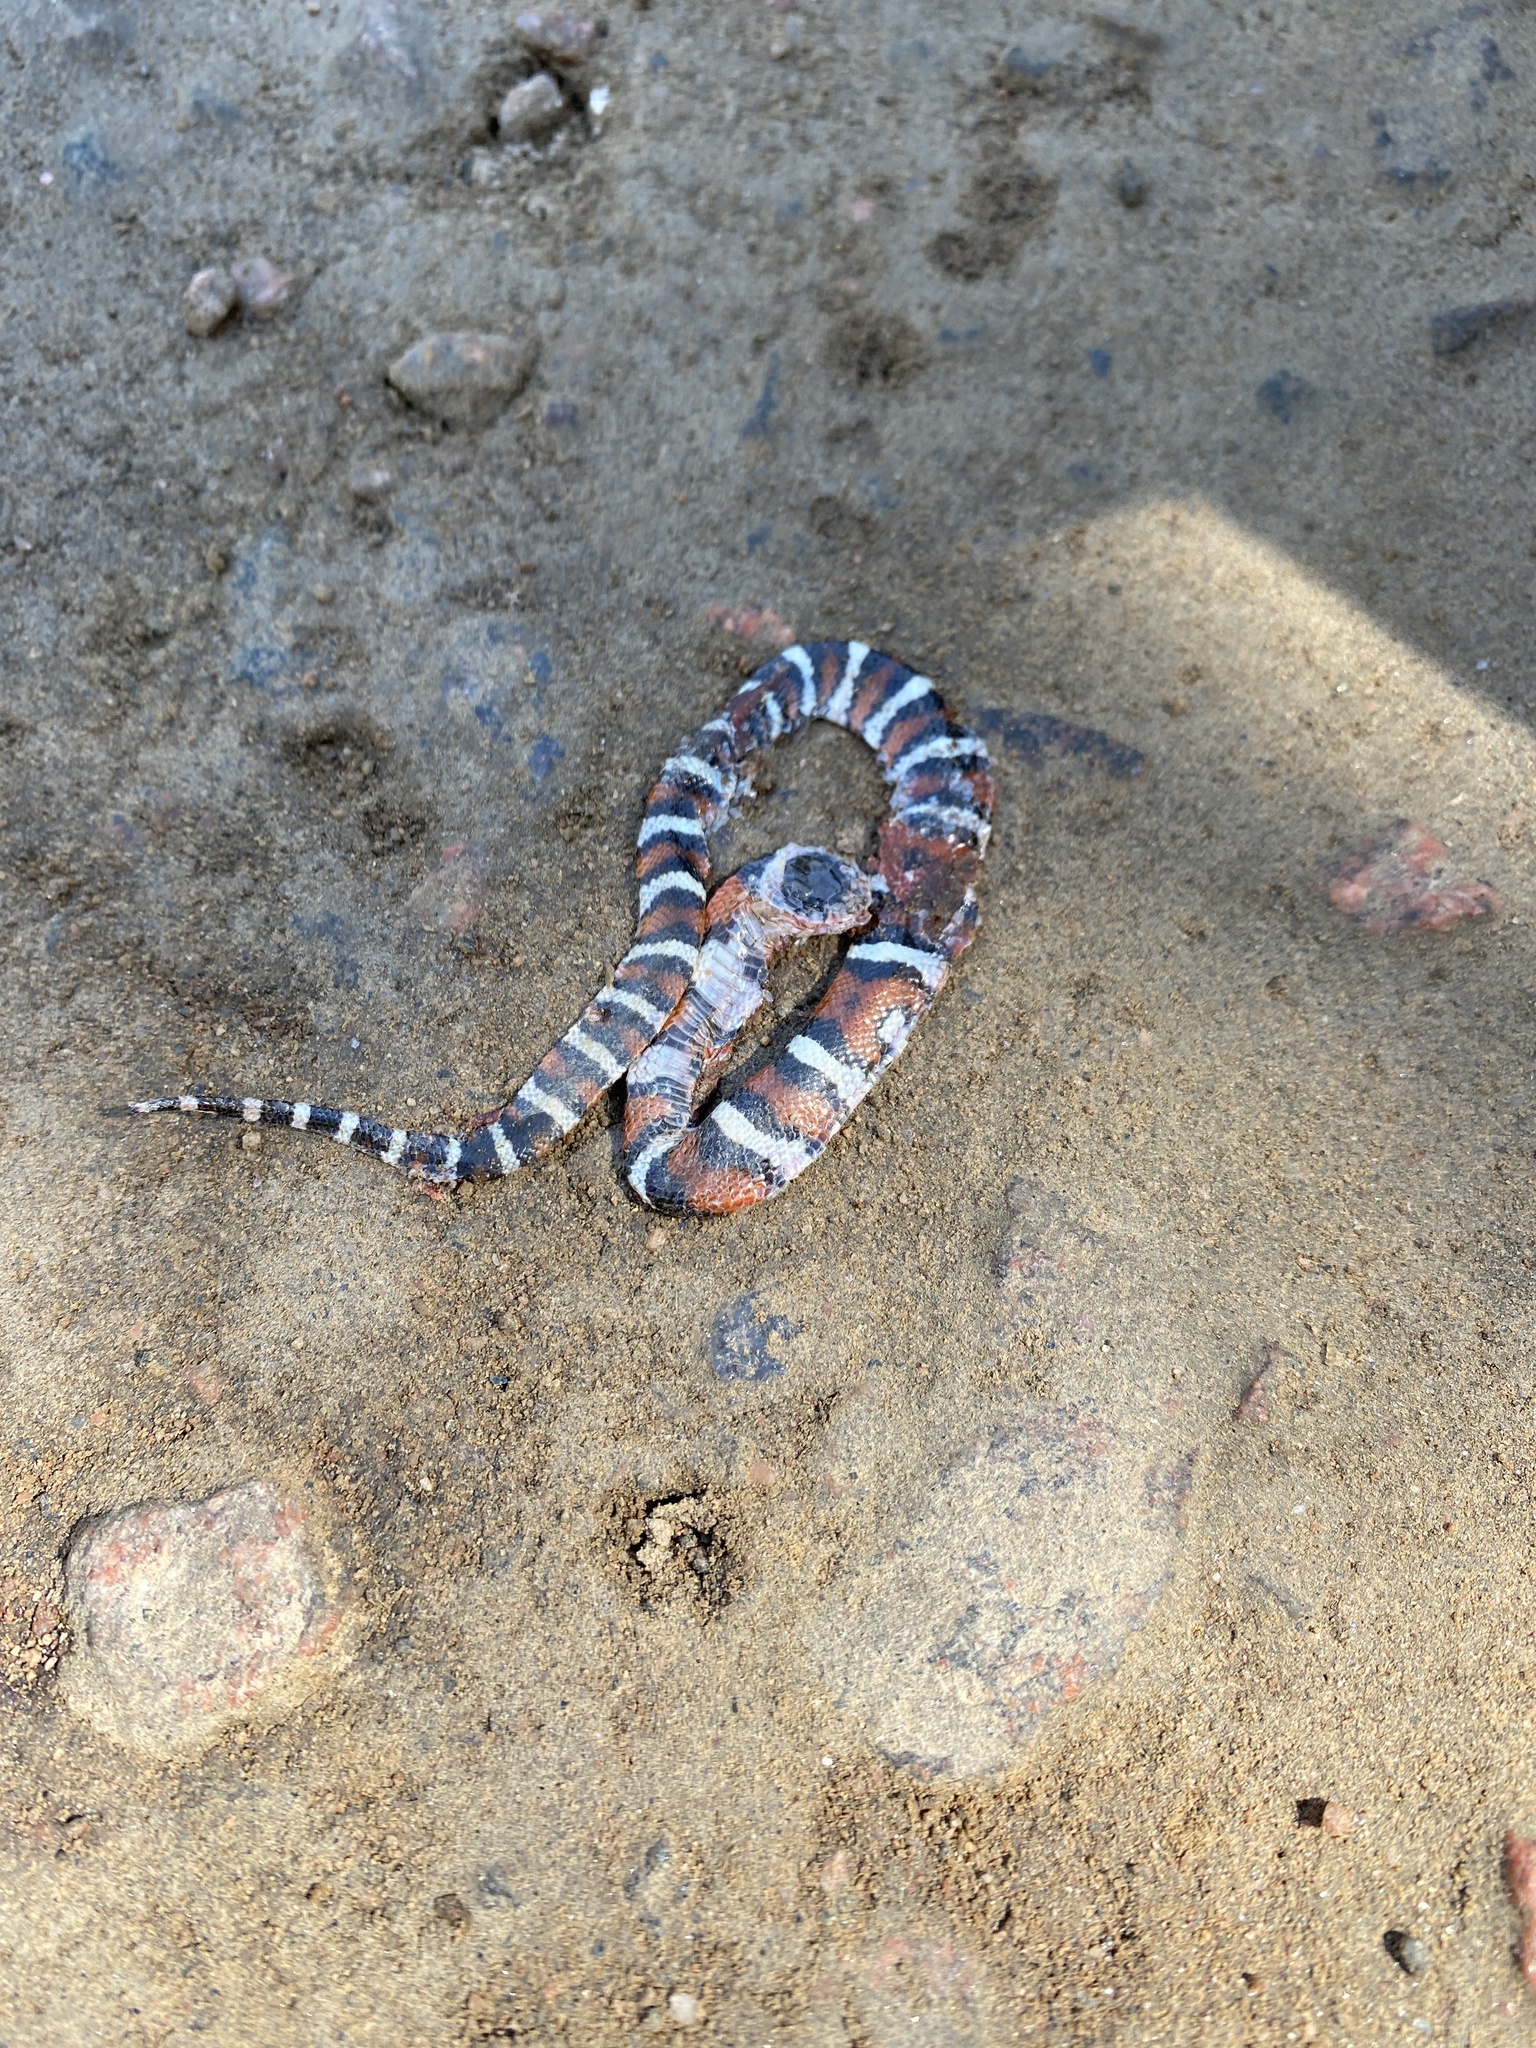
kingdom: Animalia
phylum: Chordata
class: Squamata
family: Colubridae
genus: Lampropeltis
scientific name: Lampropeltis gentilis
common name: Central plains milksnake
